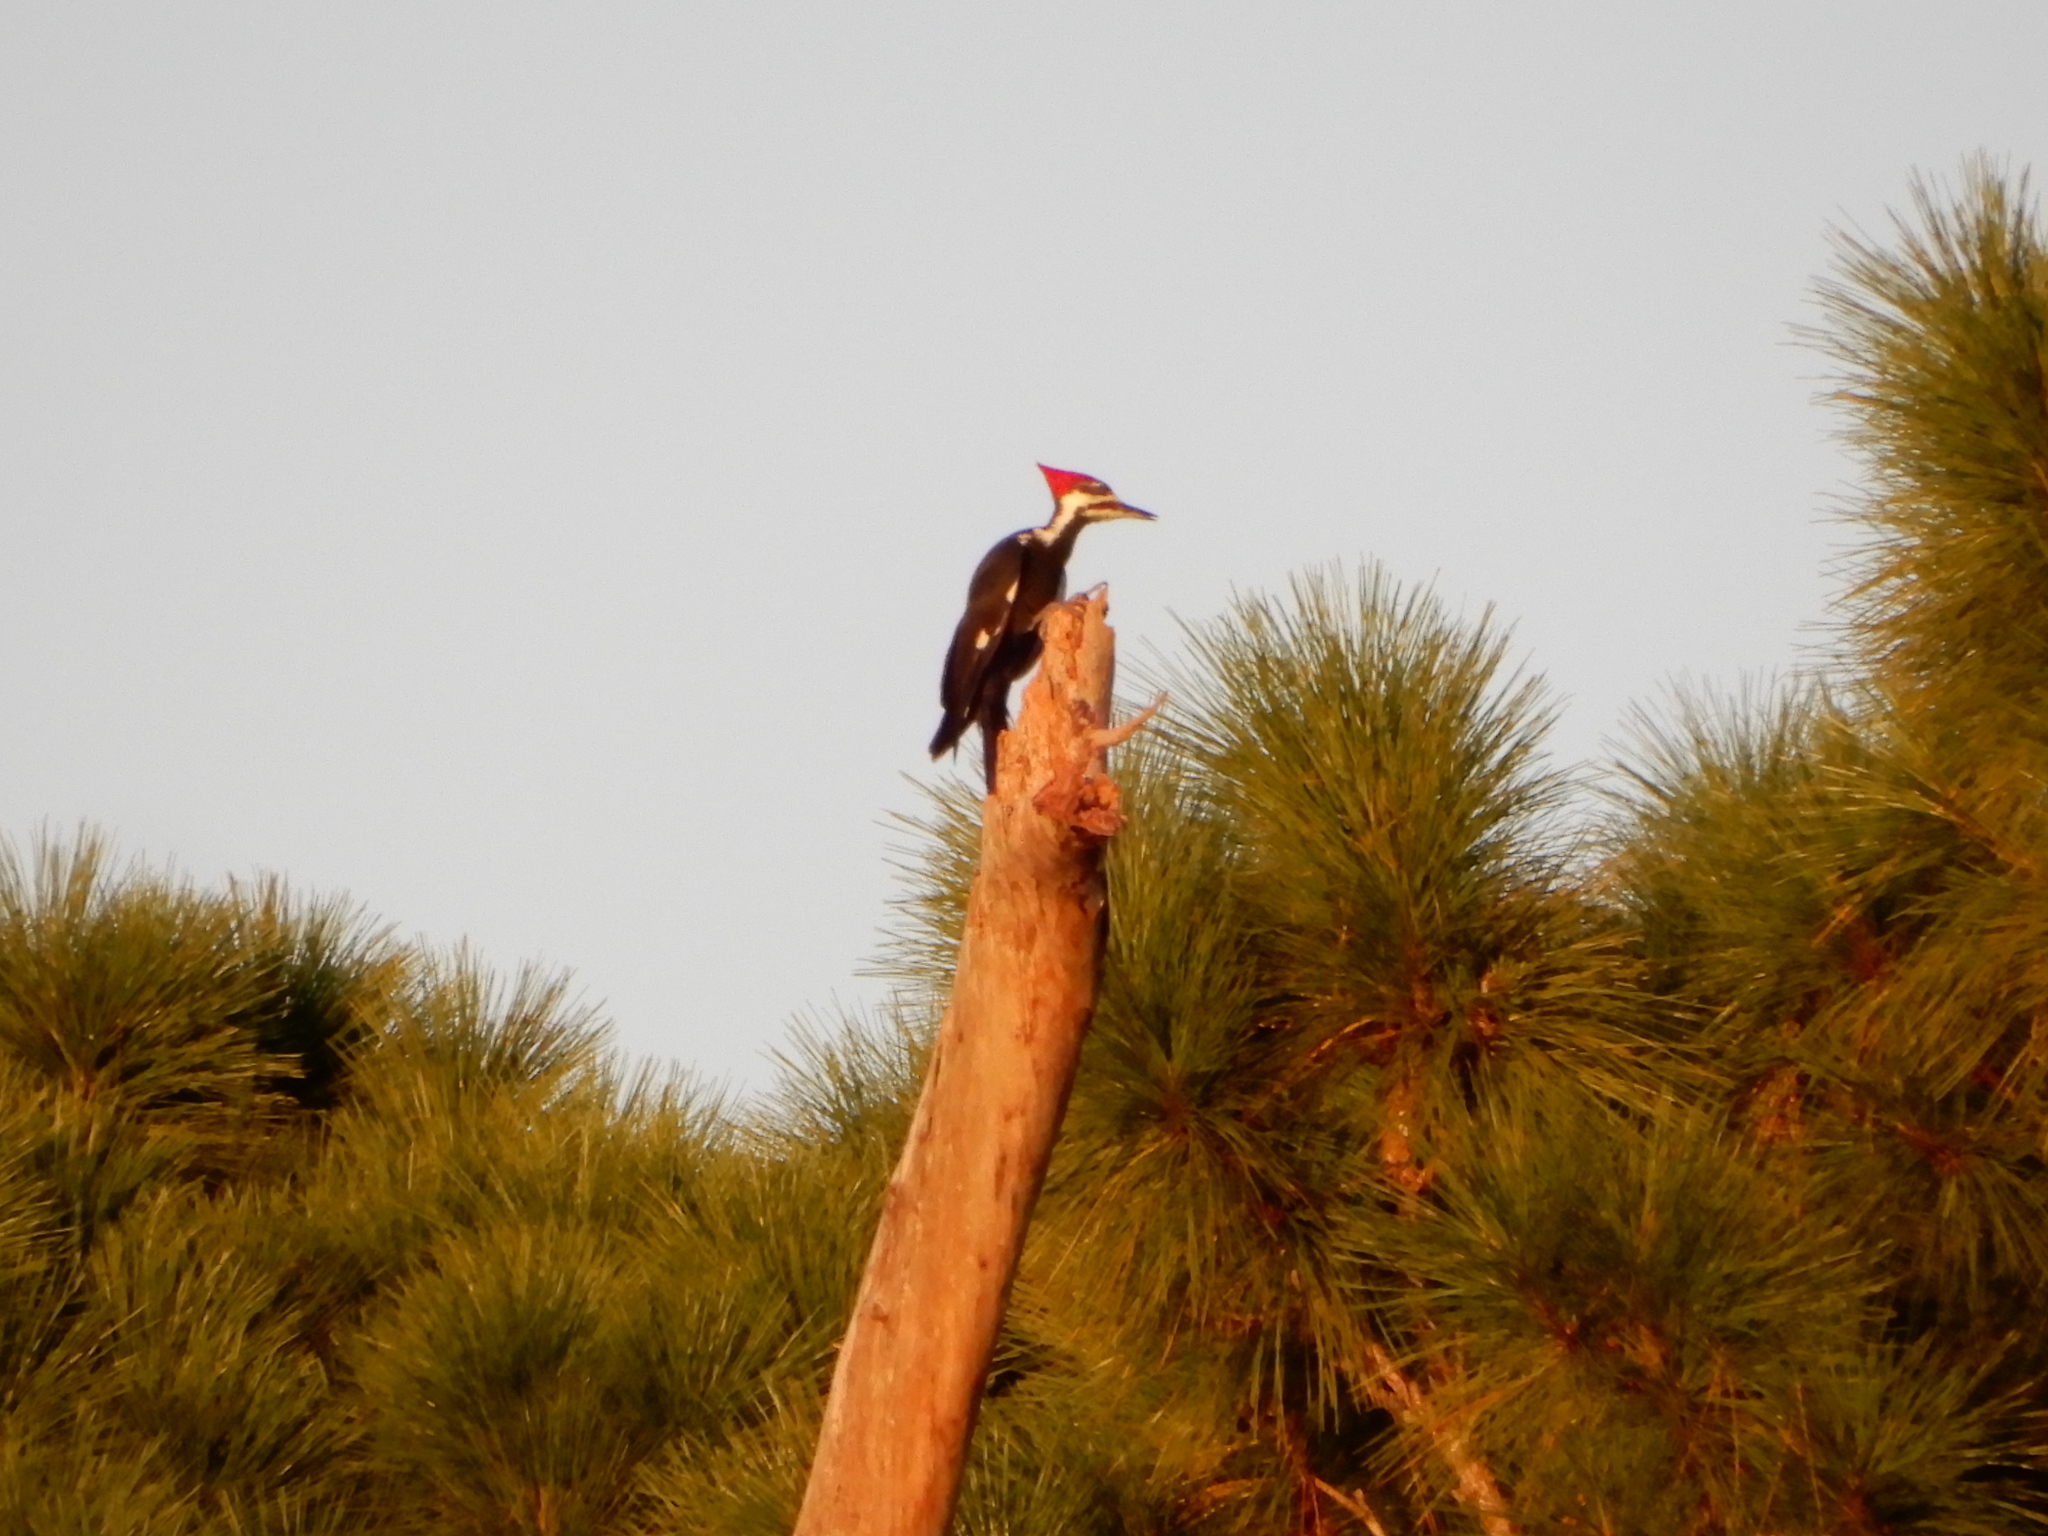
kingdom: Animalia
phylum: Chordata
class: Aves
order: Piciformes
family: Picidae
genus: Dryocopus
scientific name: Dryocopus pileatus
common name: Pileated woodpecker
